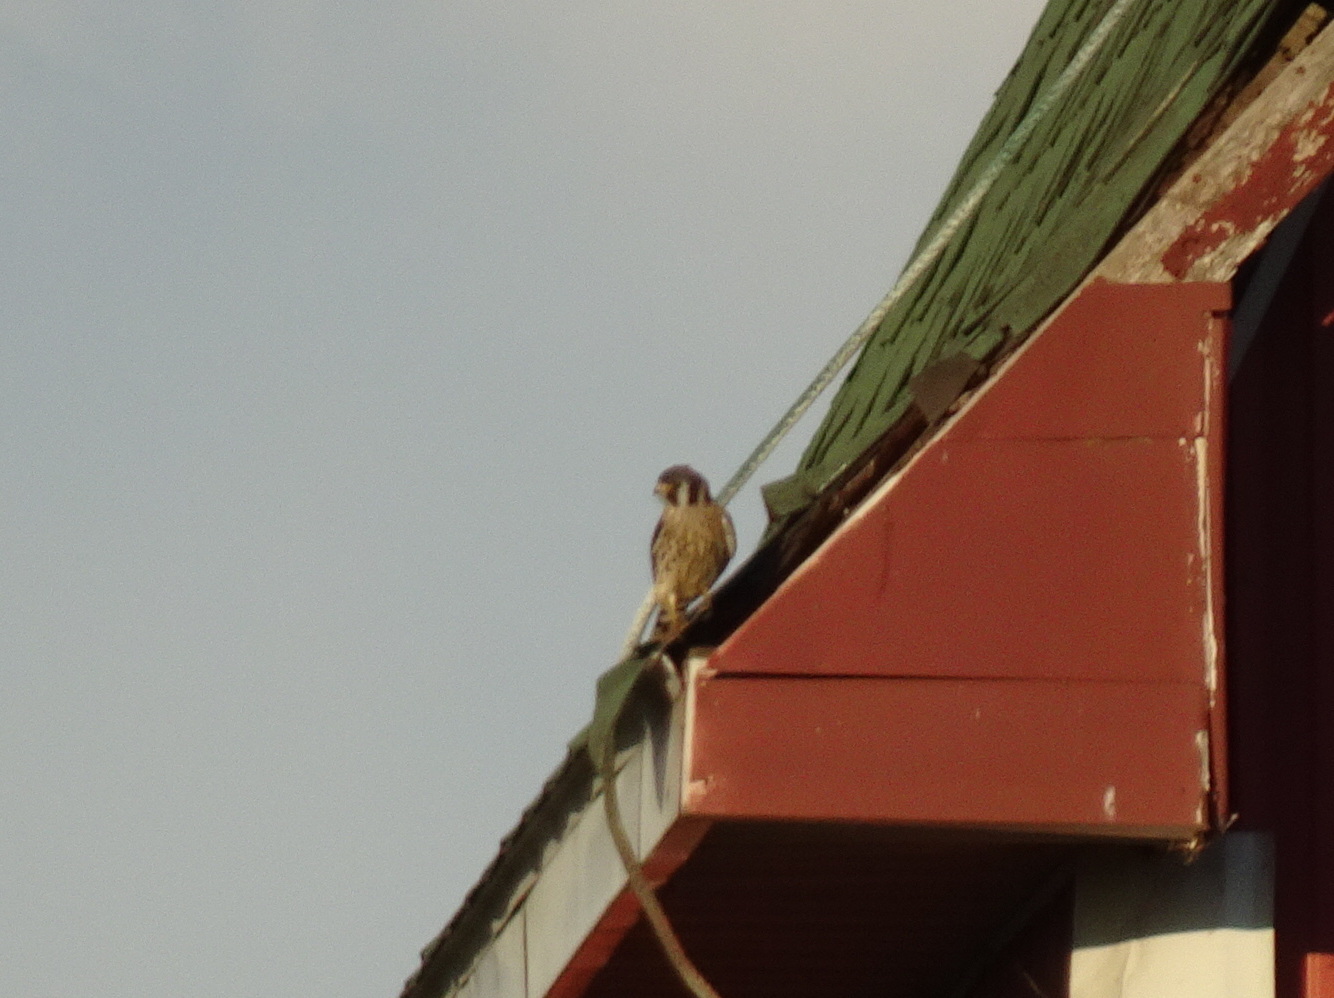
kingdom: Animalia
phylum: Chordata
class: Aves
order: Falconiformes
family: Falconidae
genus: Falco
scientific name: Falco sparverius
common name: American kestrel
